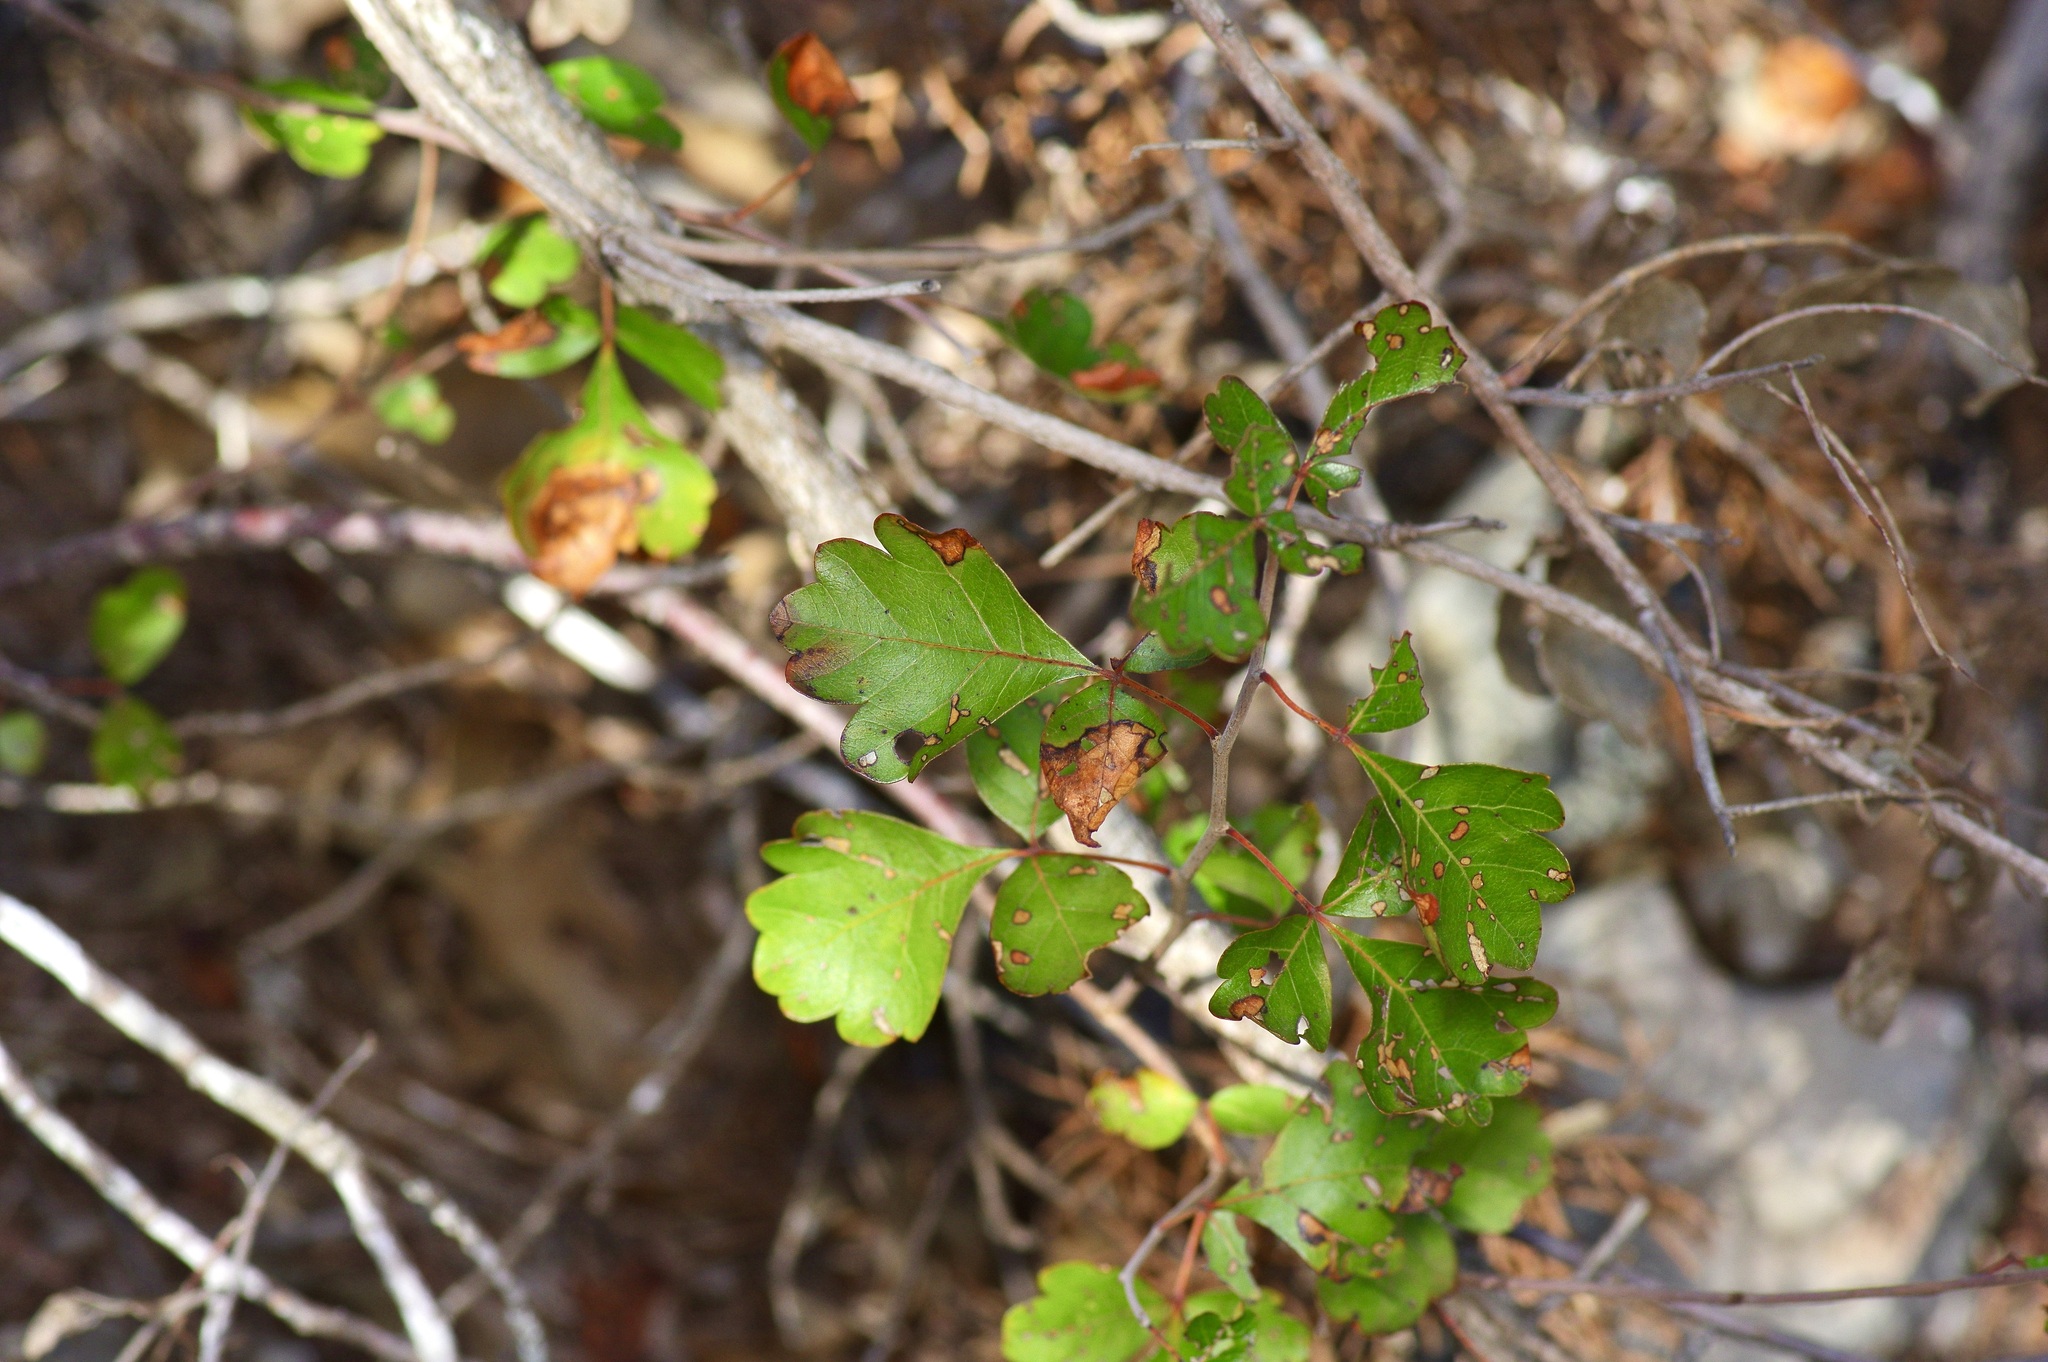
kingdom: Plantae
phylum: Tracheophyta
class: Magnoliopsida
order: Sapindales
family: Anacardiaceae
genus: Rhus
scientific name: Rhus aromatica
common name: Aromatic sumac
